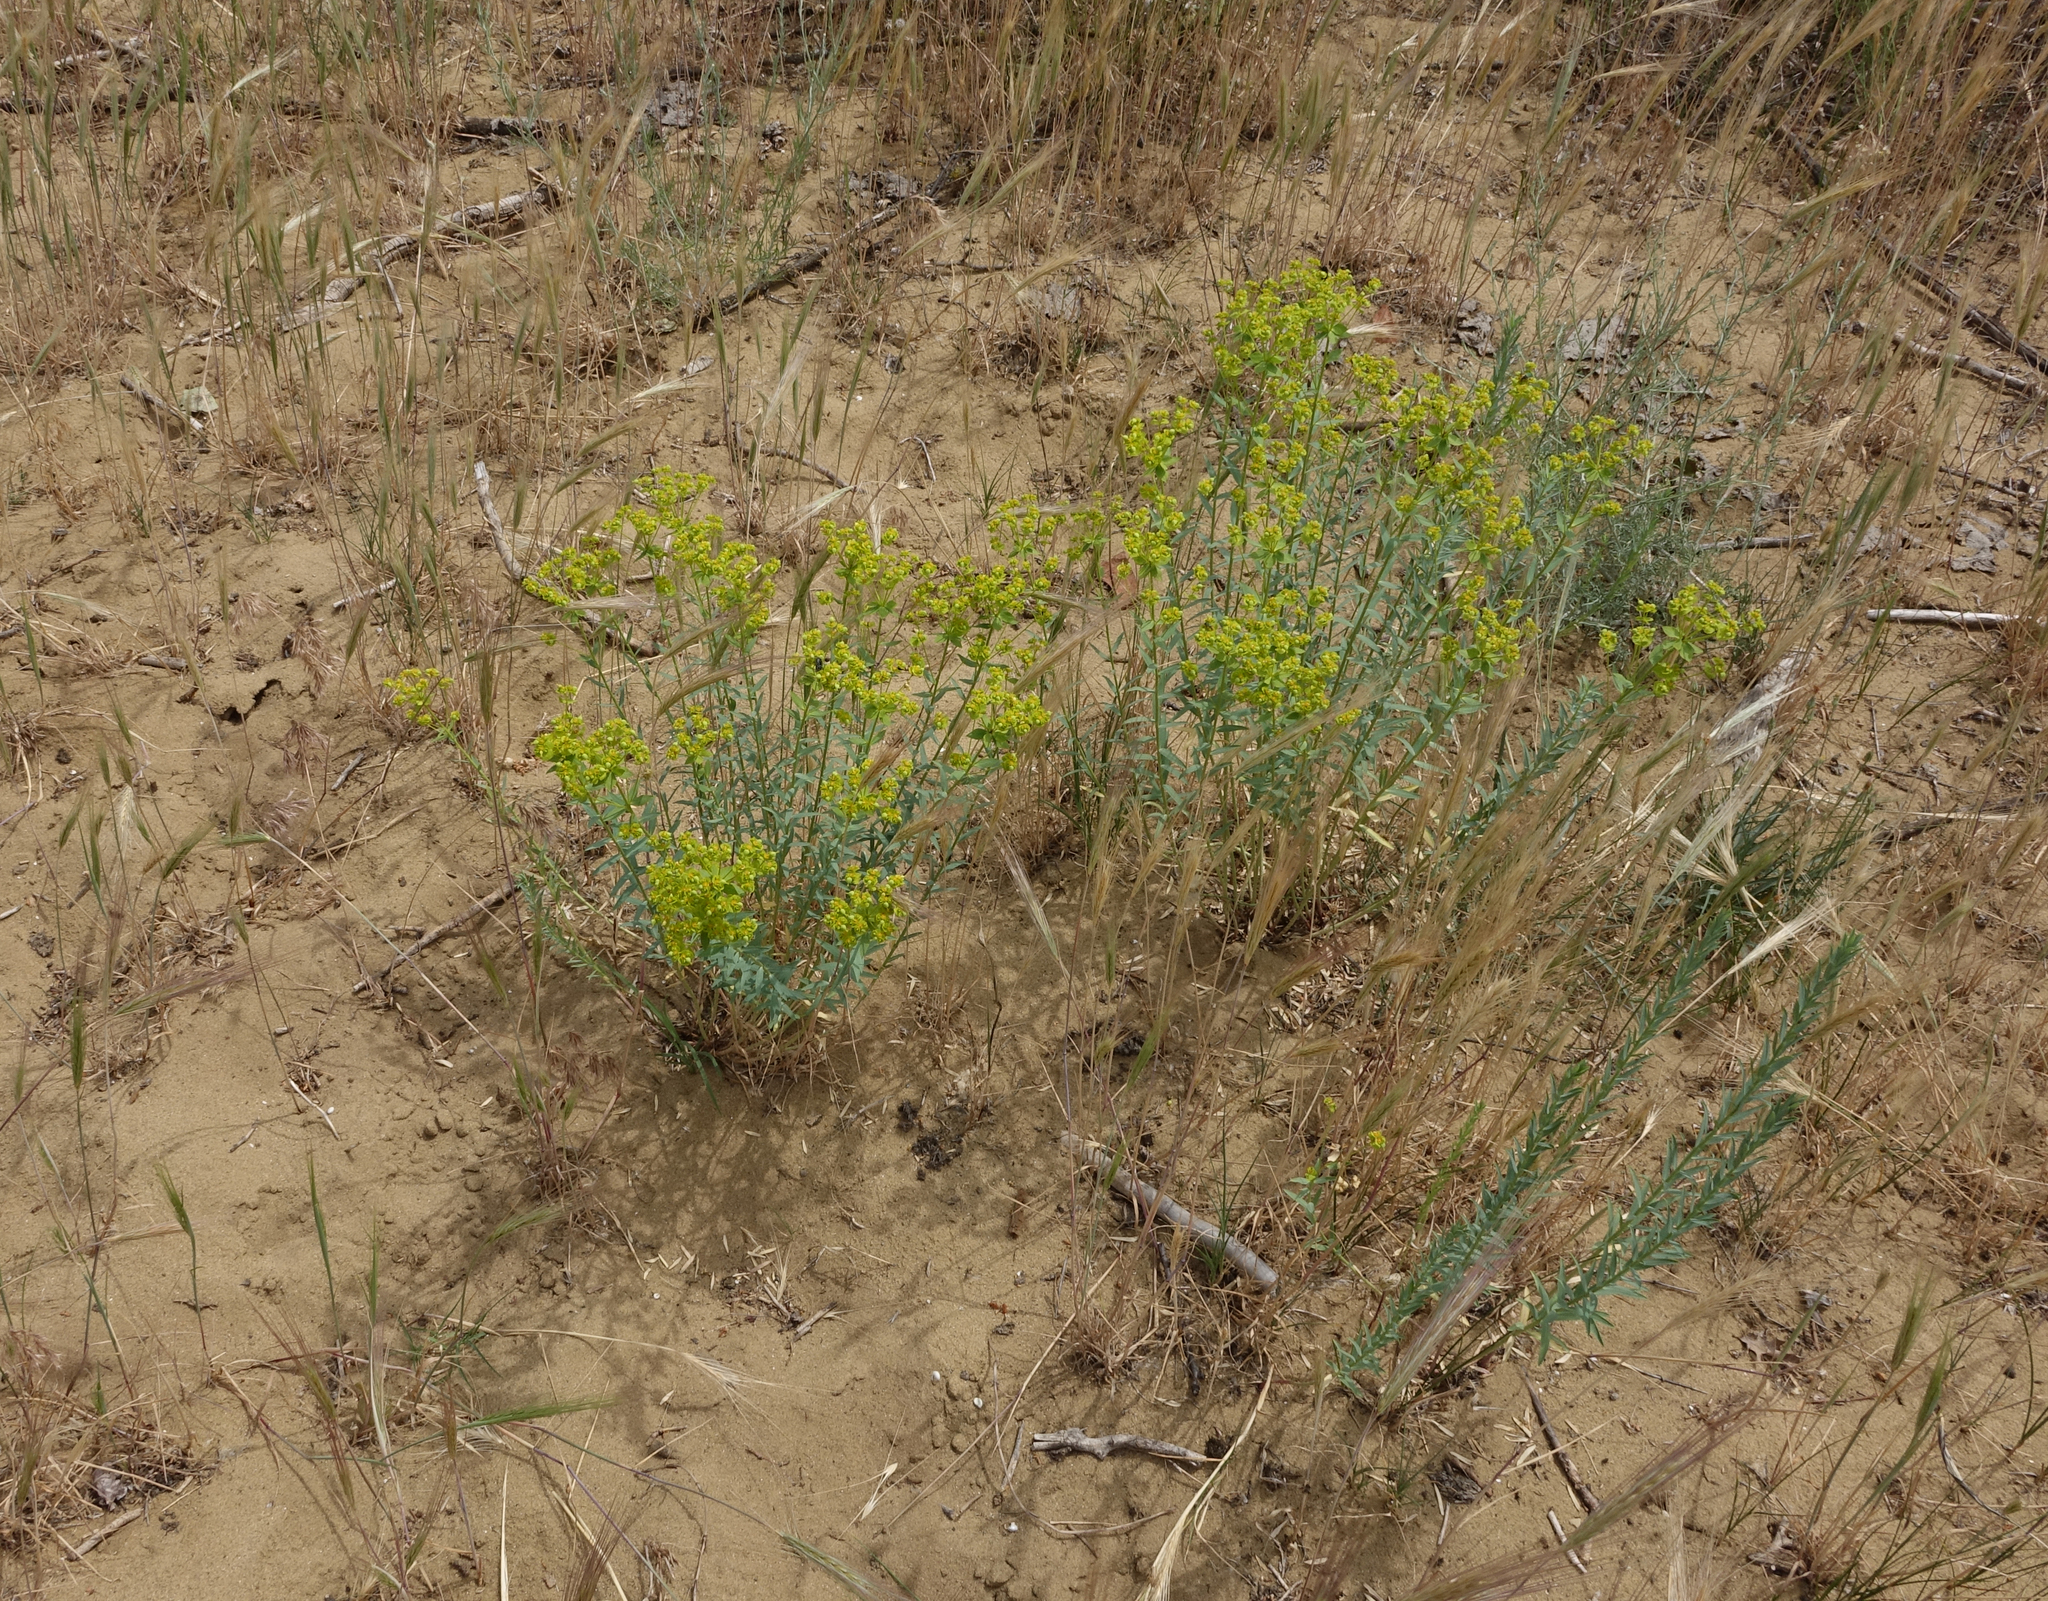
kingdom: Plantae
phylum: Tracheophyta
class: Magnoliopsida
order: Malpighiales
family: Euphorbiaceae
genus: Euphorbia
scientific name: Euphorbia seguieriana
